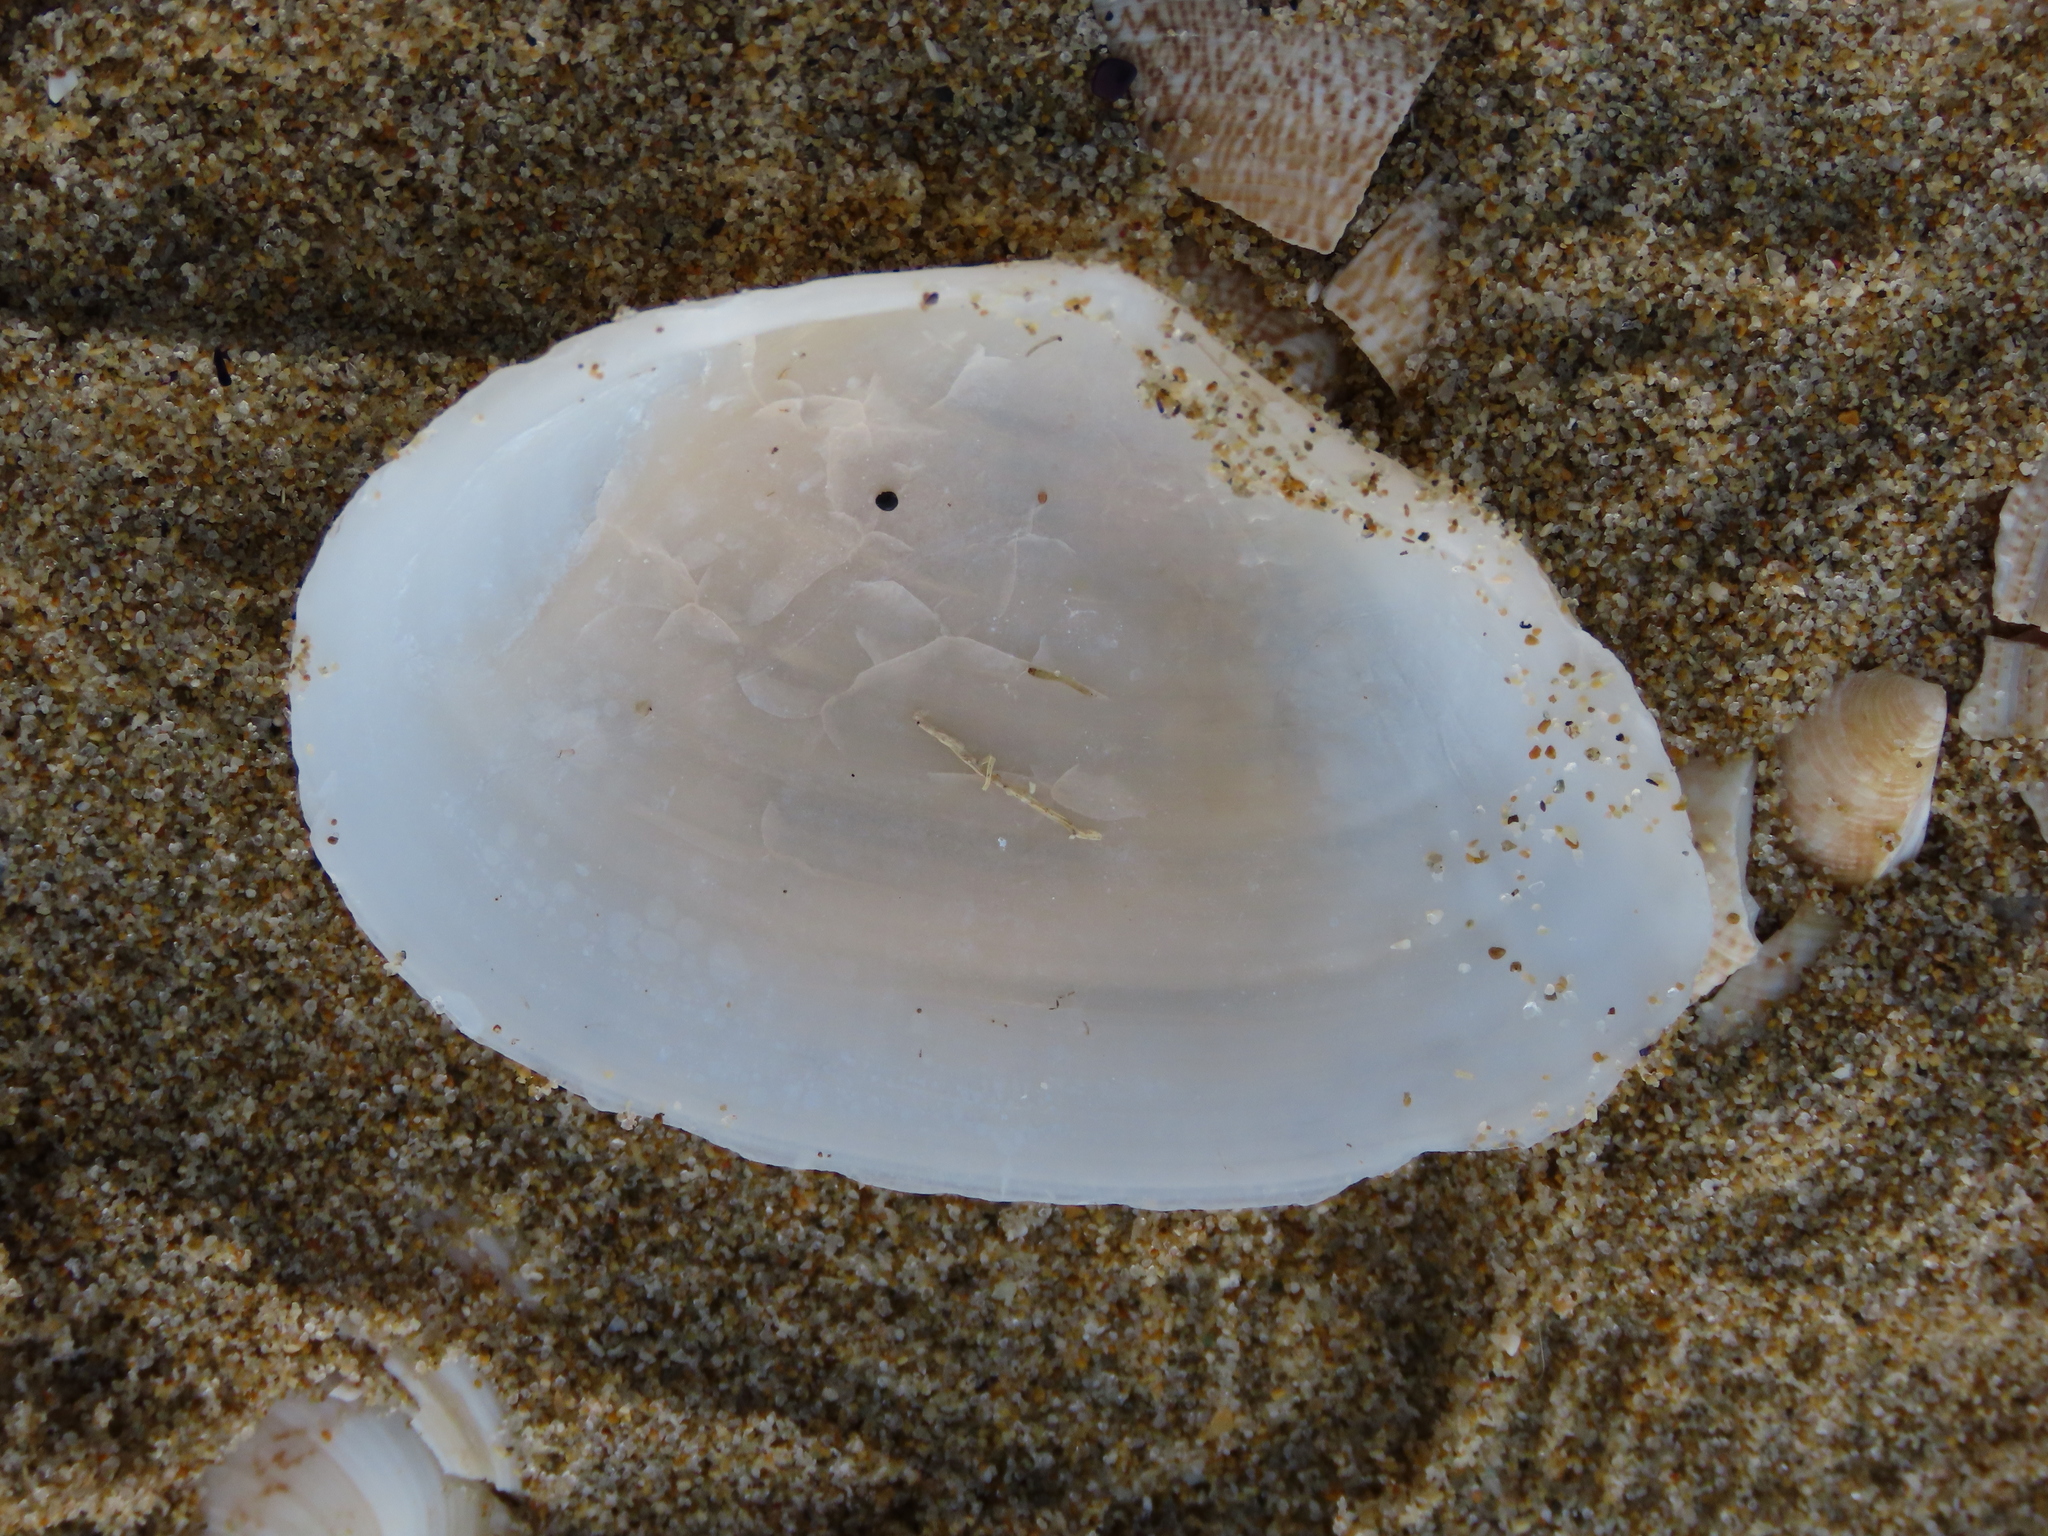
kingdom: Animalia
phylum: Mollusca
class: Bivalvia
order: Cardiida
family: Tellinidae
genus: Peronaea
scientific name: Peronaea planata
